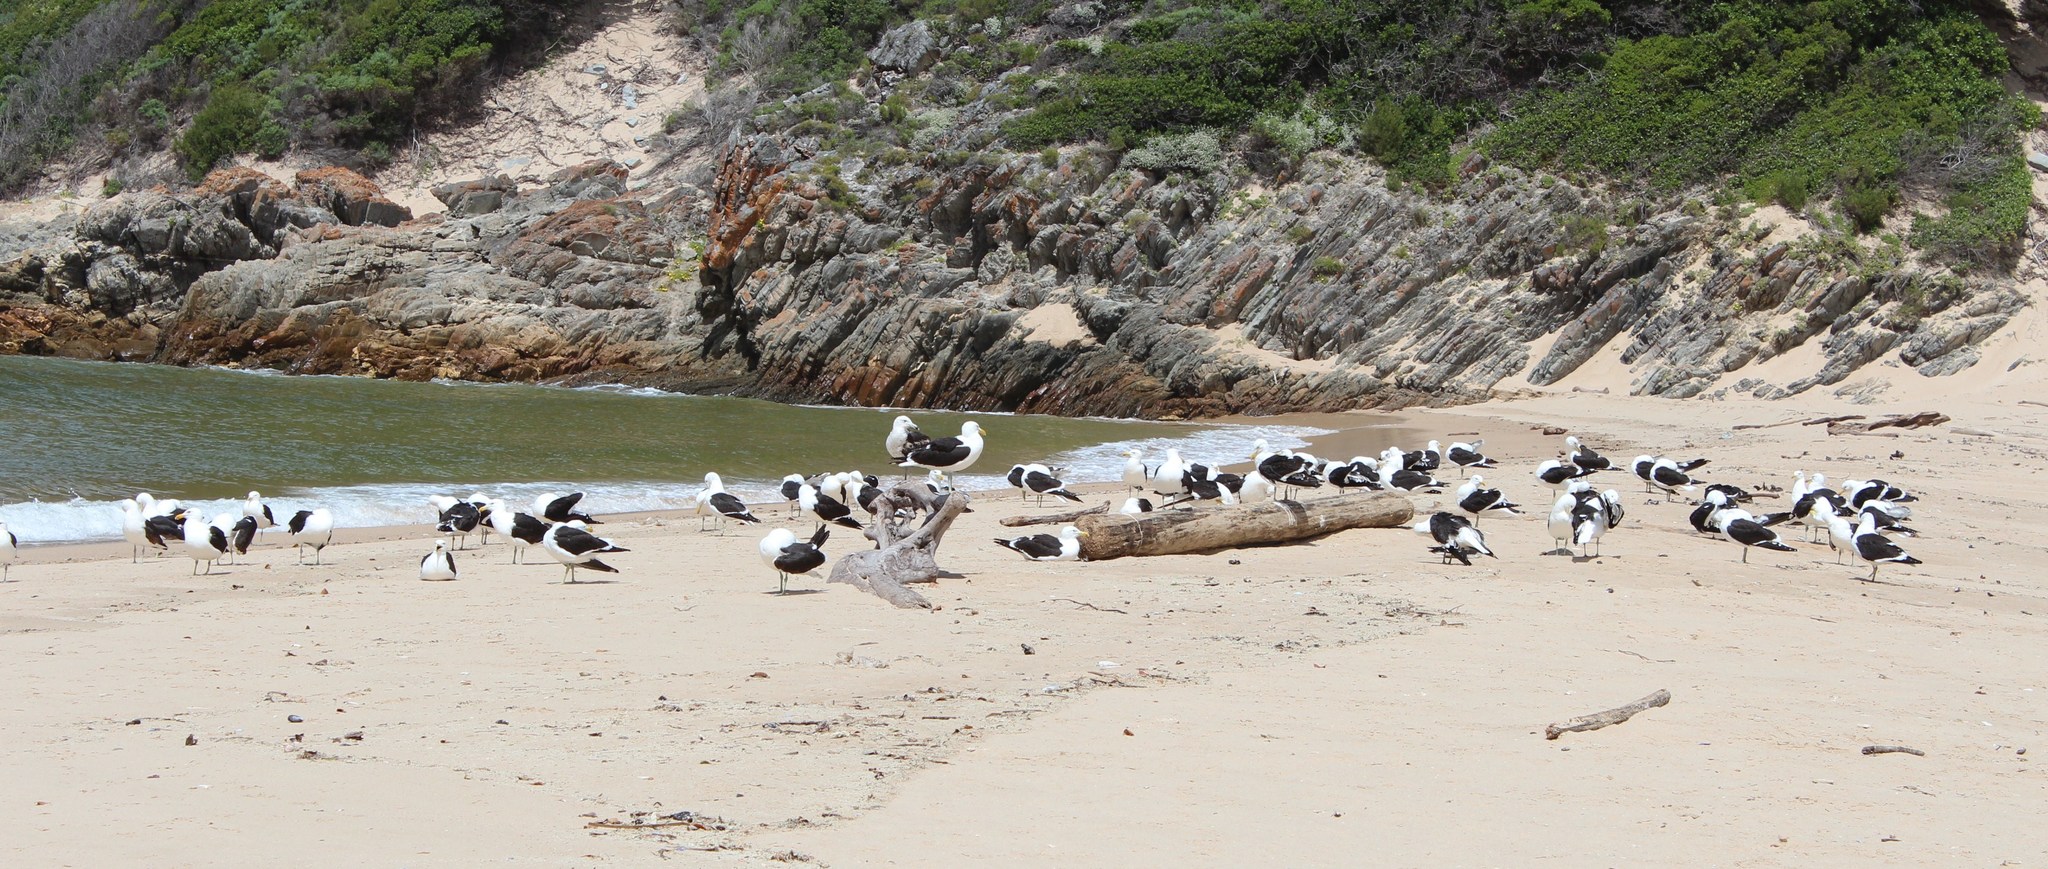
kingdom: Animalia
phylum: Chordata
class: Aves
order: Charadriiformes
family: Laridae
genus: Larus
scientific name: Larus dominicanus
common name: Kelp gull
